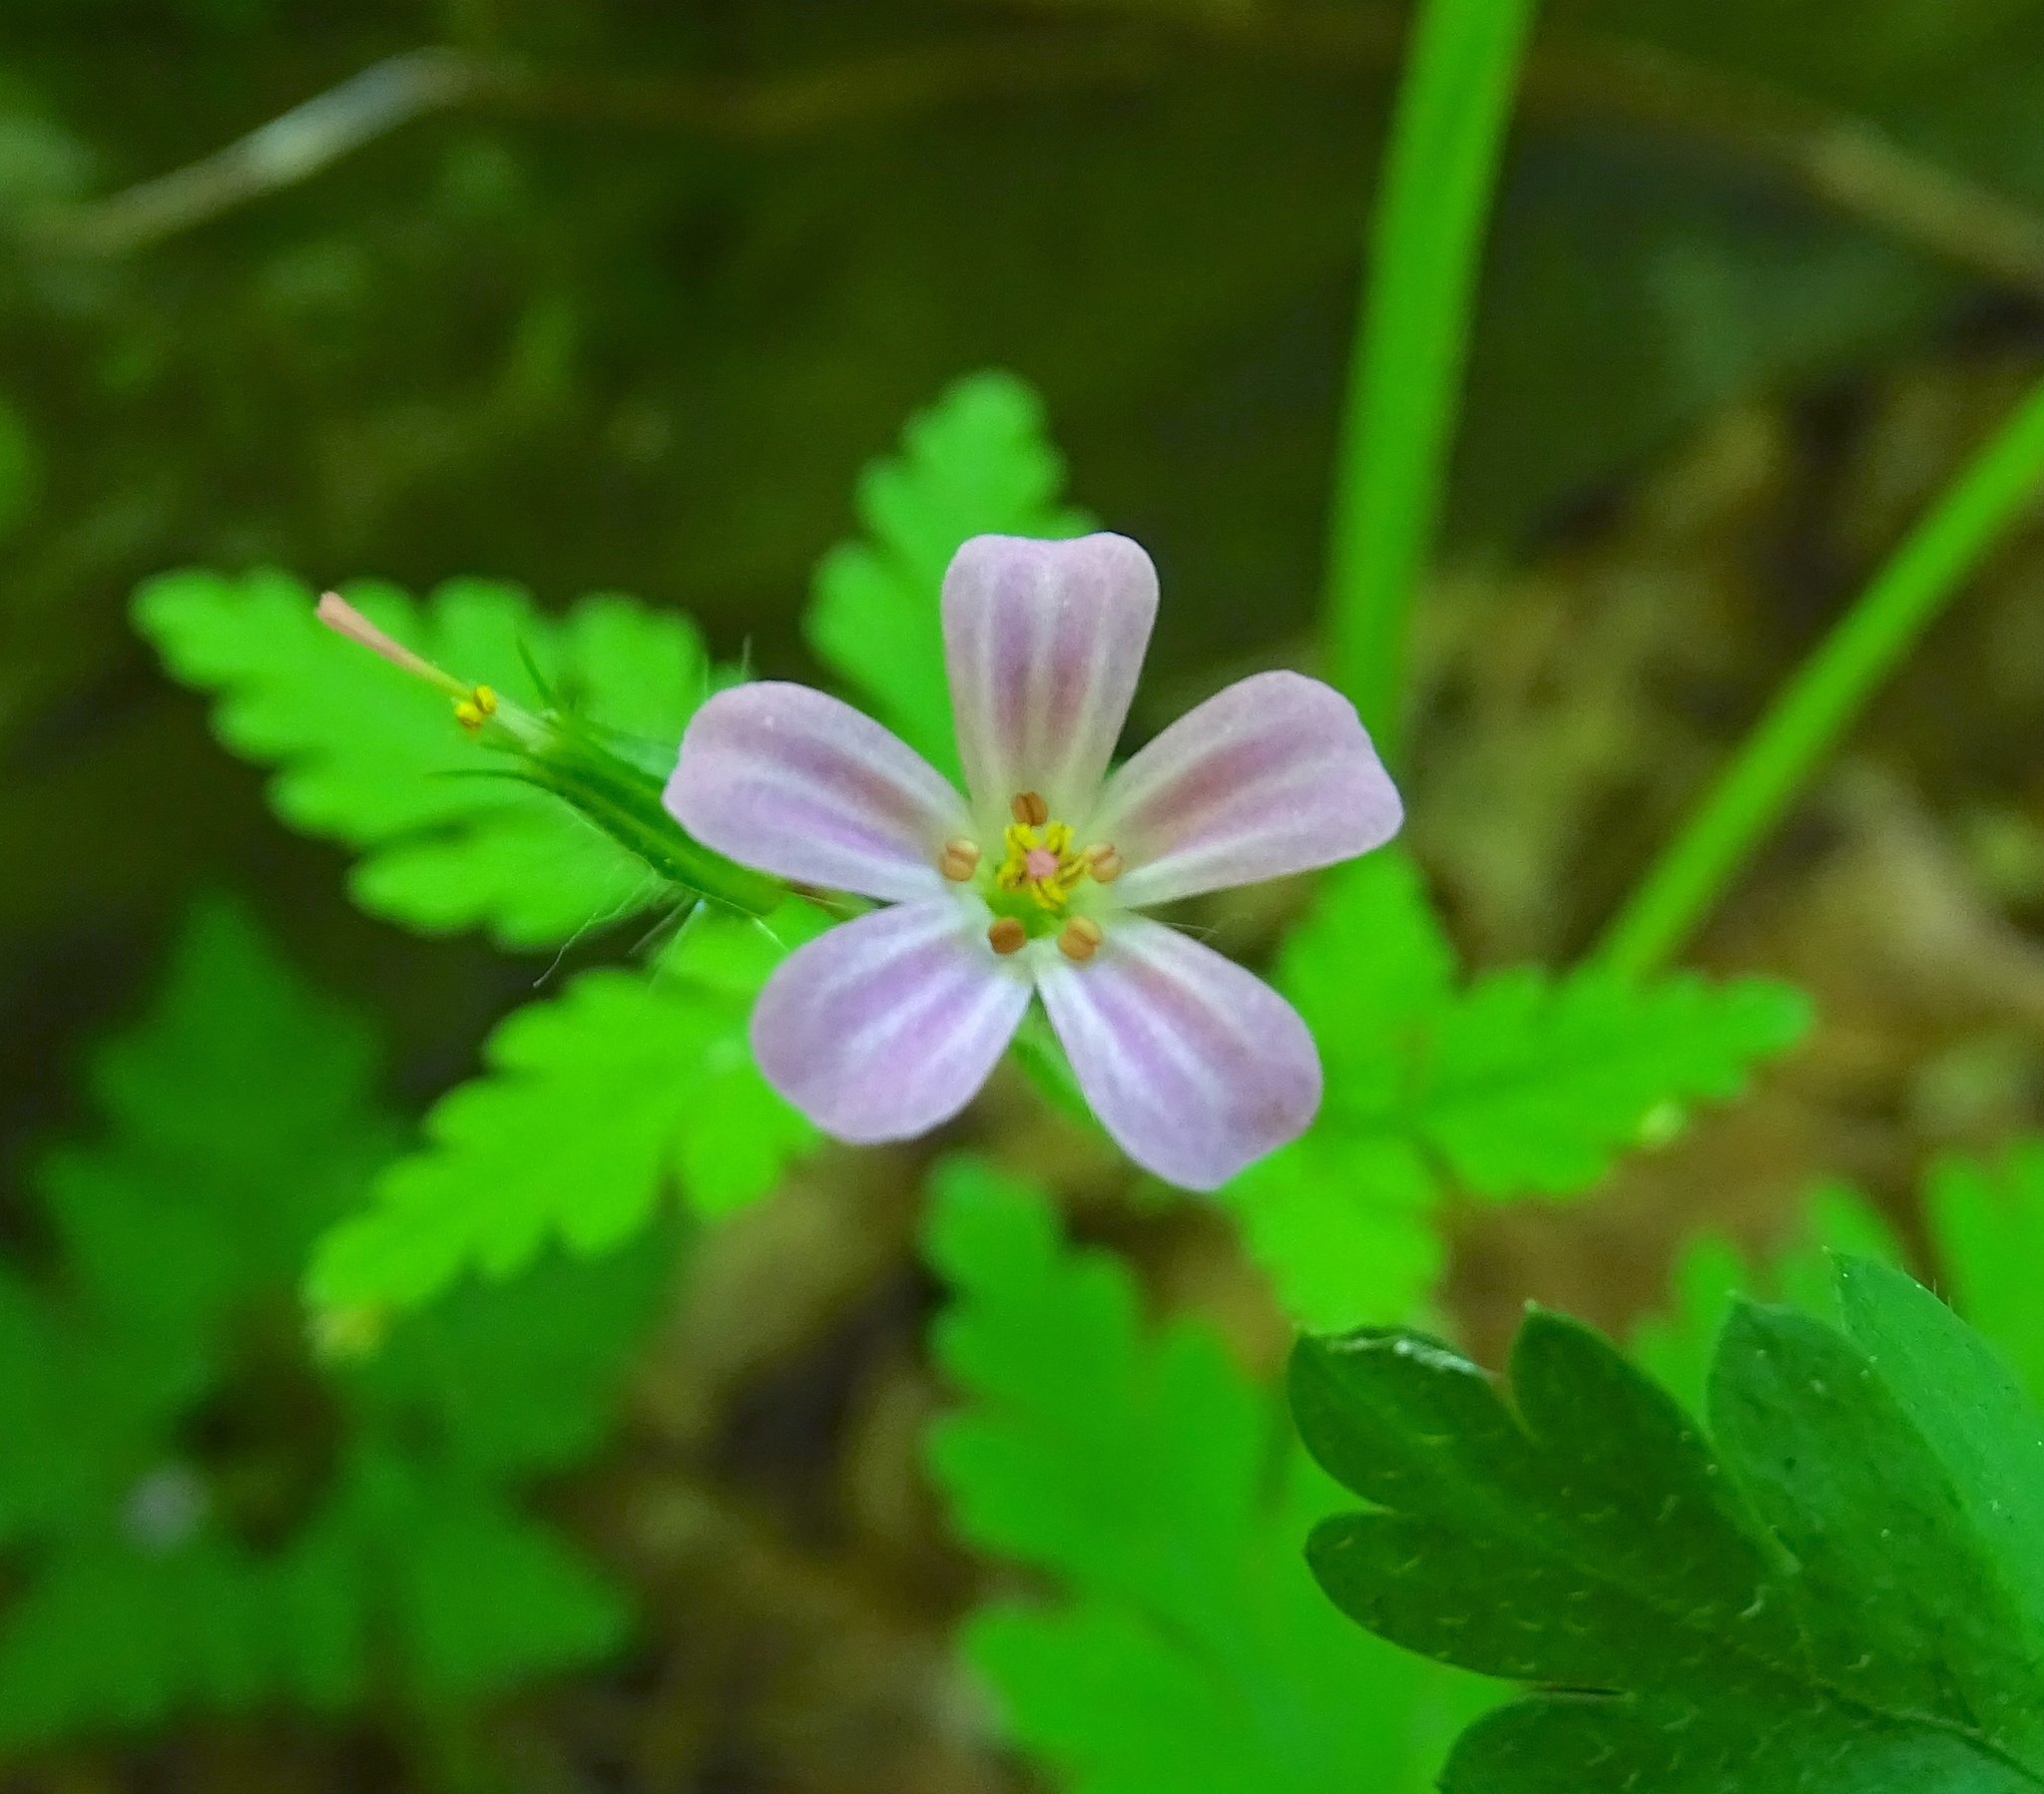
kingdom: Plantae
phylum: Tracheophyta
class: Magnoliopsida
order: Geraniales
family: Geraniaceae
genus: Geranium
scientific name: Geranium robertianum
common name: Herb-robert
